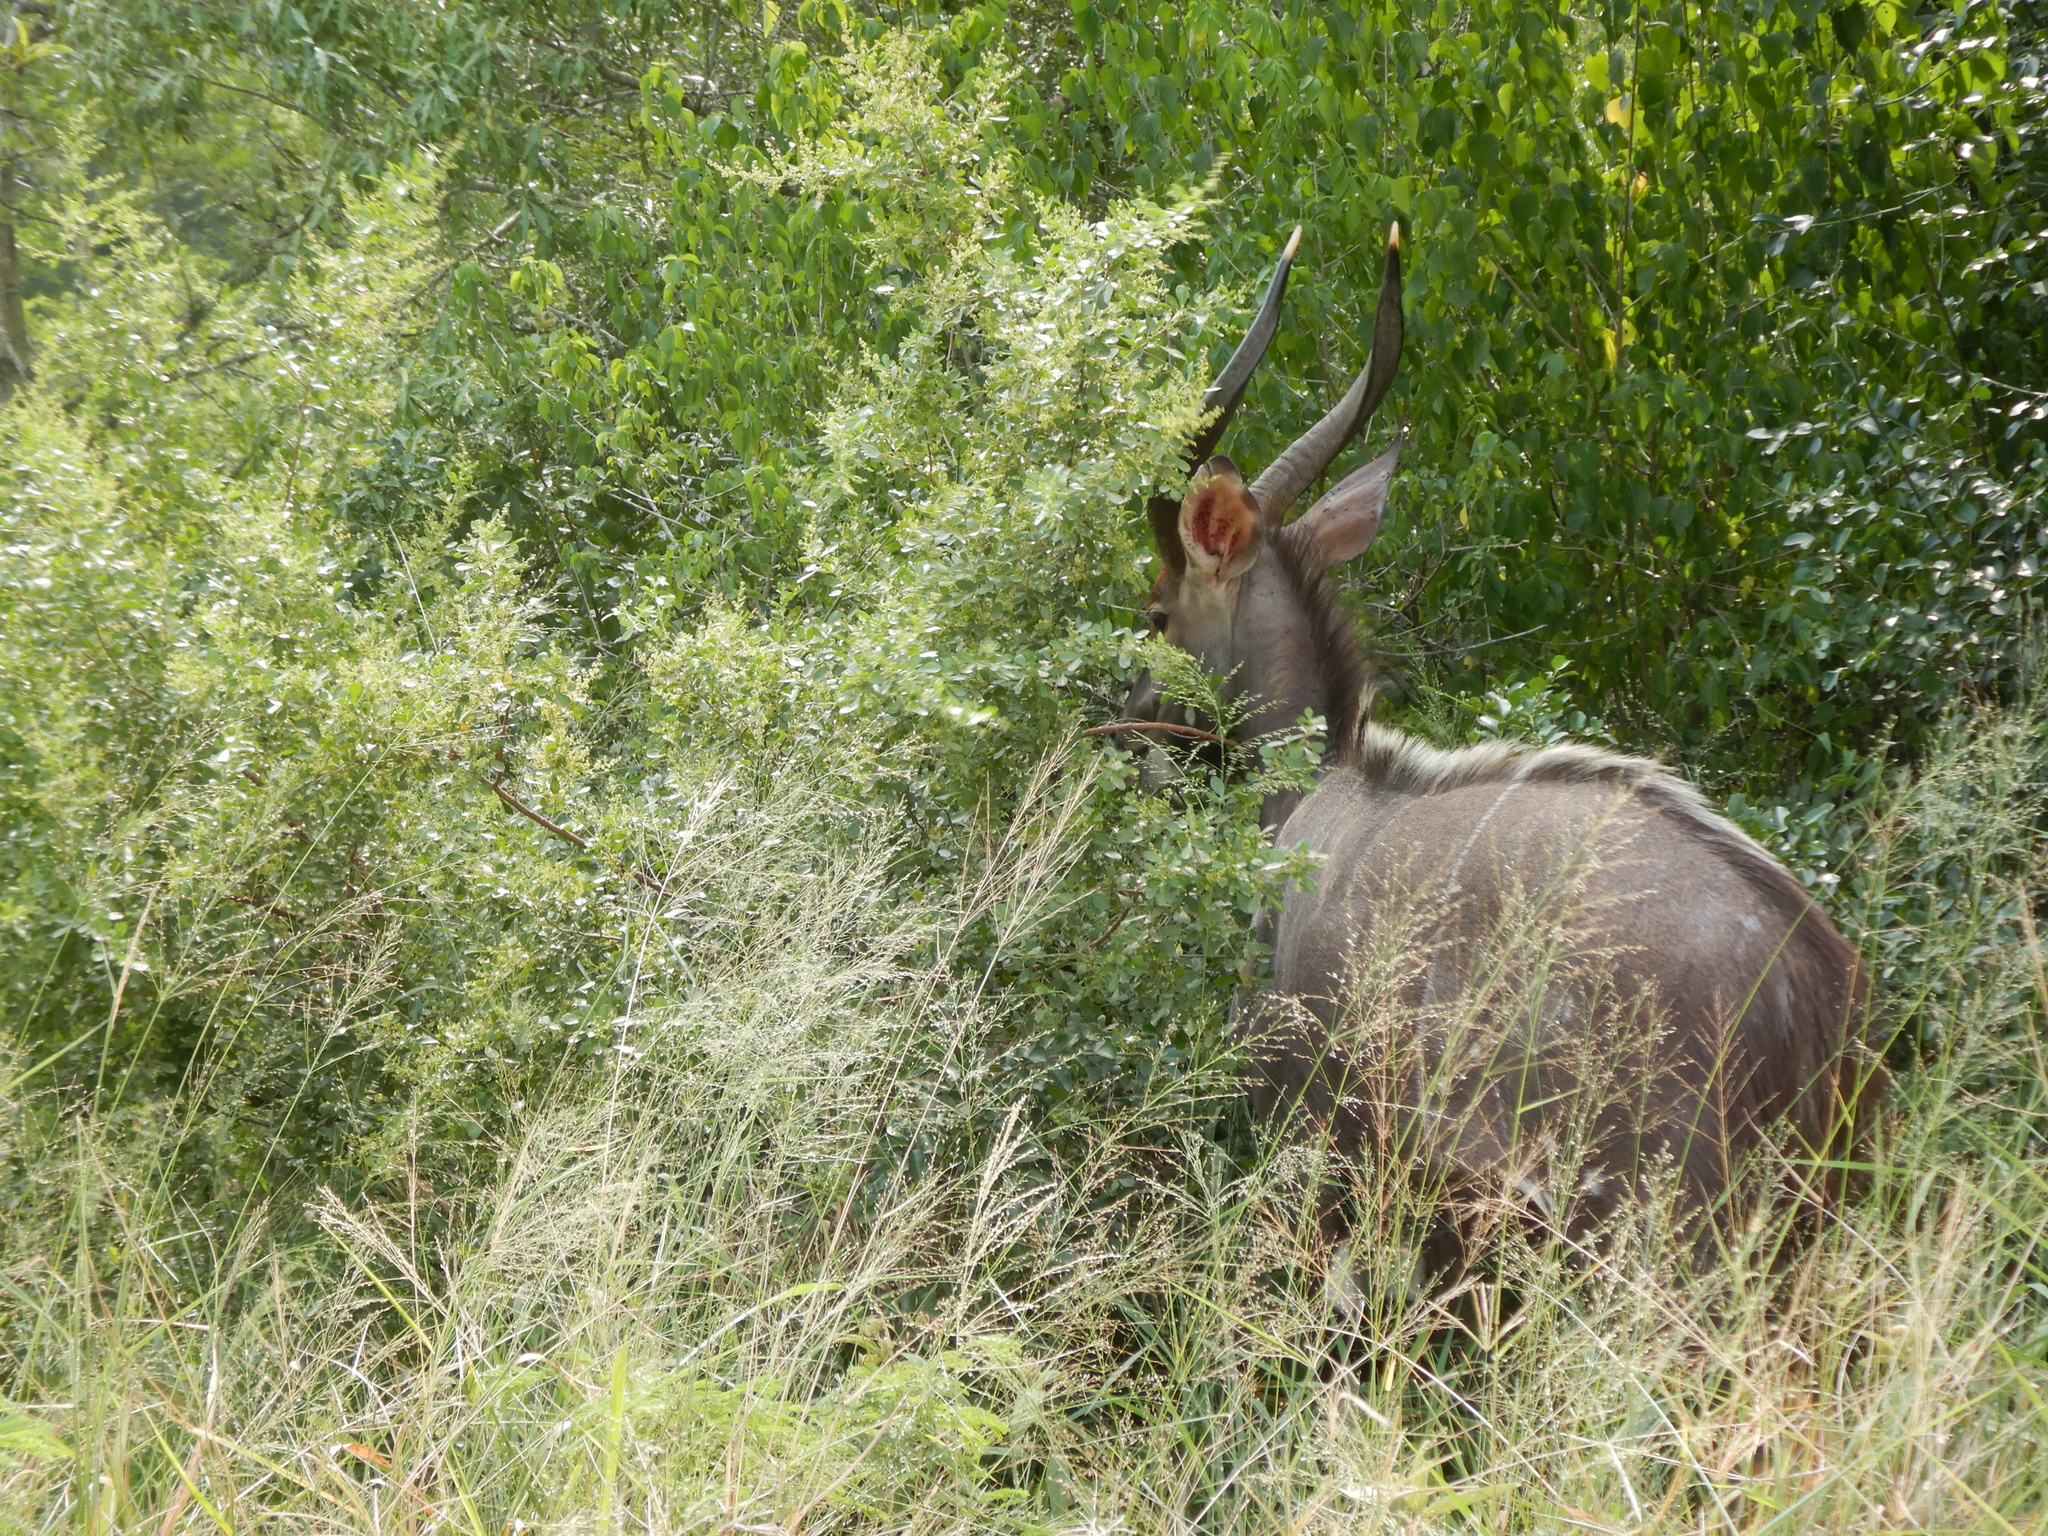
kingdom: Animalia
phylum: Chordata
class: Mammalia
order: Artiodactyla
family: Bovidae
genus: Tragelaphus
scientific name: Tragelaphus angasii
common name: Nyala
